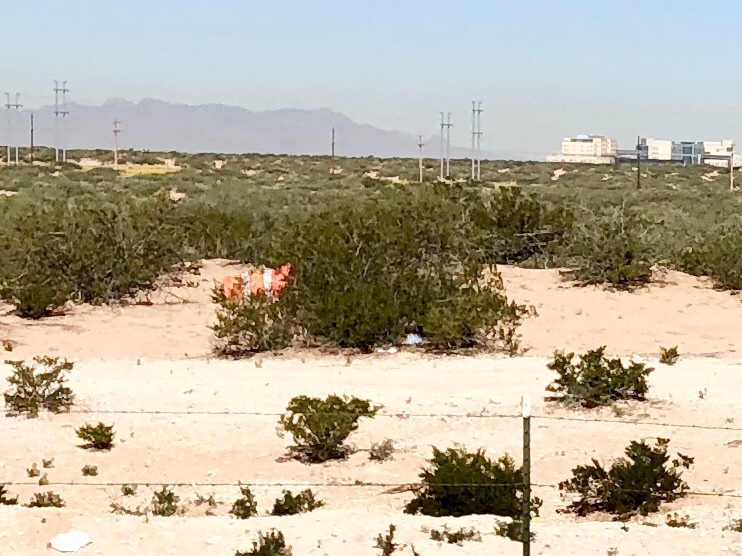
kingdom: Plantae
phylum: Tracheophyta
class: Magnoliopsida
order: Zygophyllales
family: Zygophyllaceae
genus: Larrea
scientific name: Larrea tridentata
